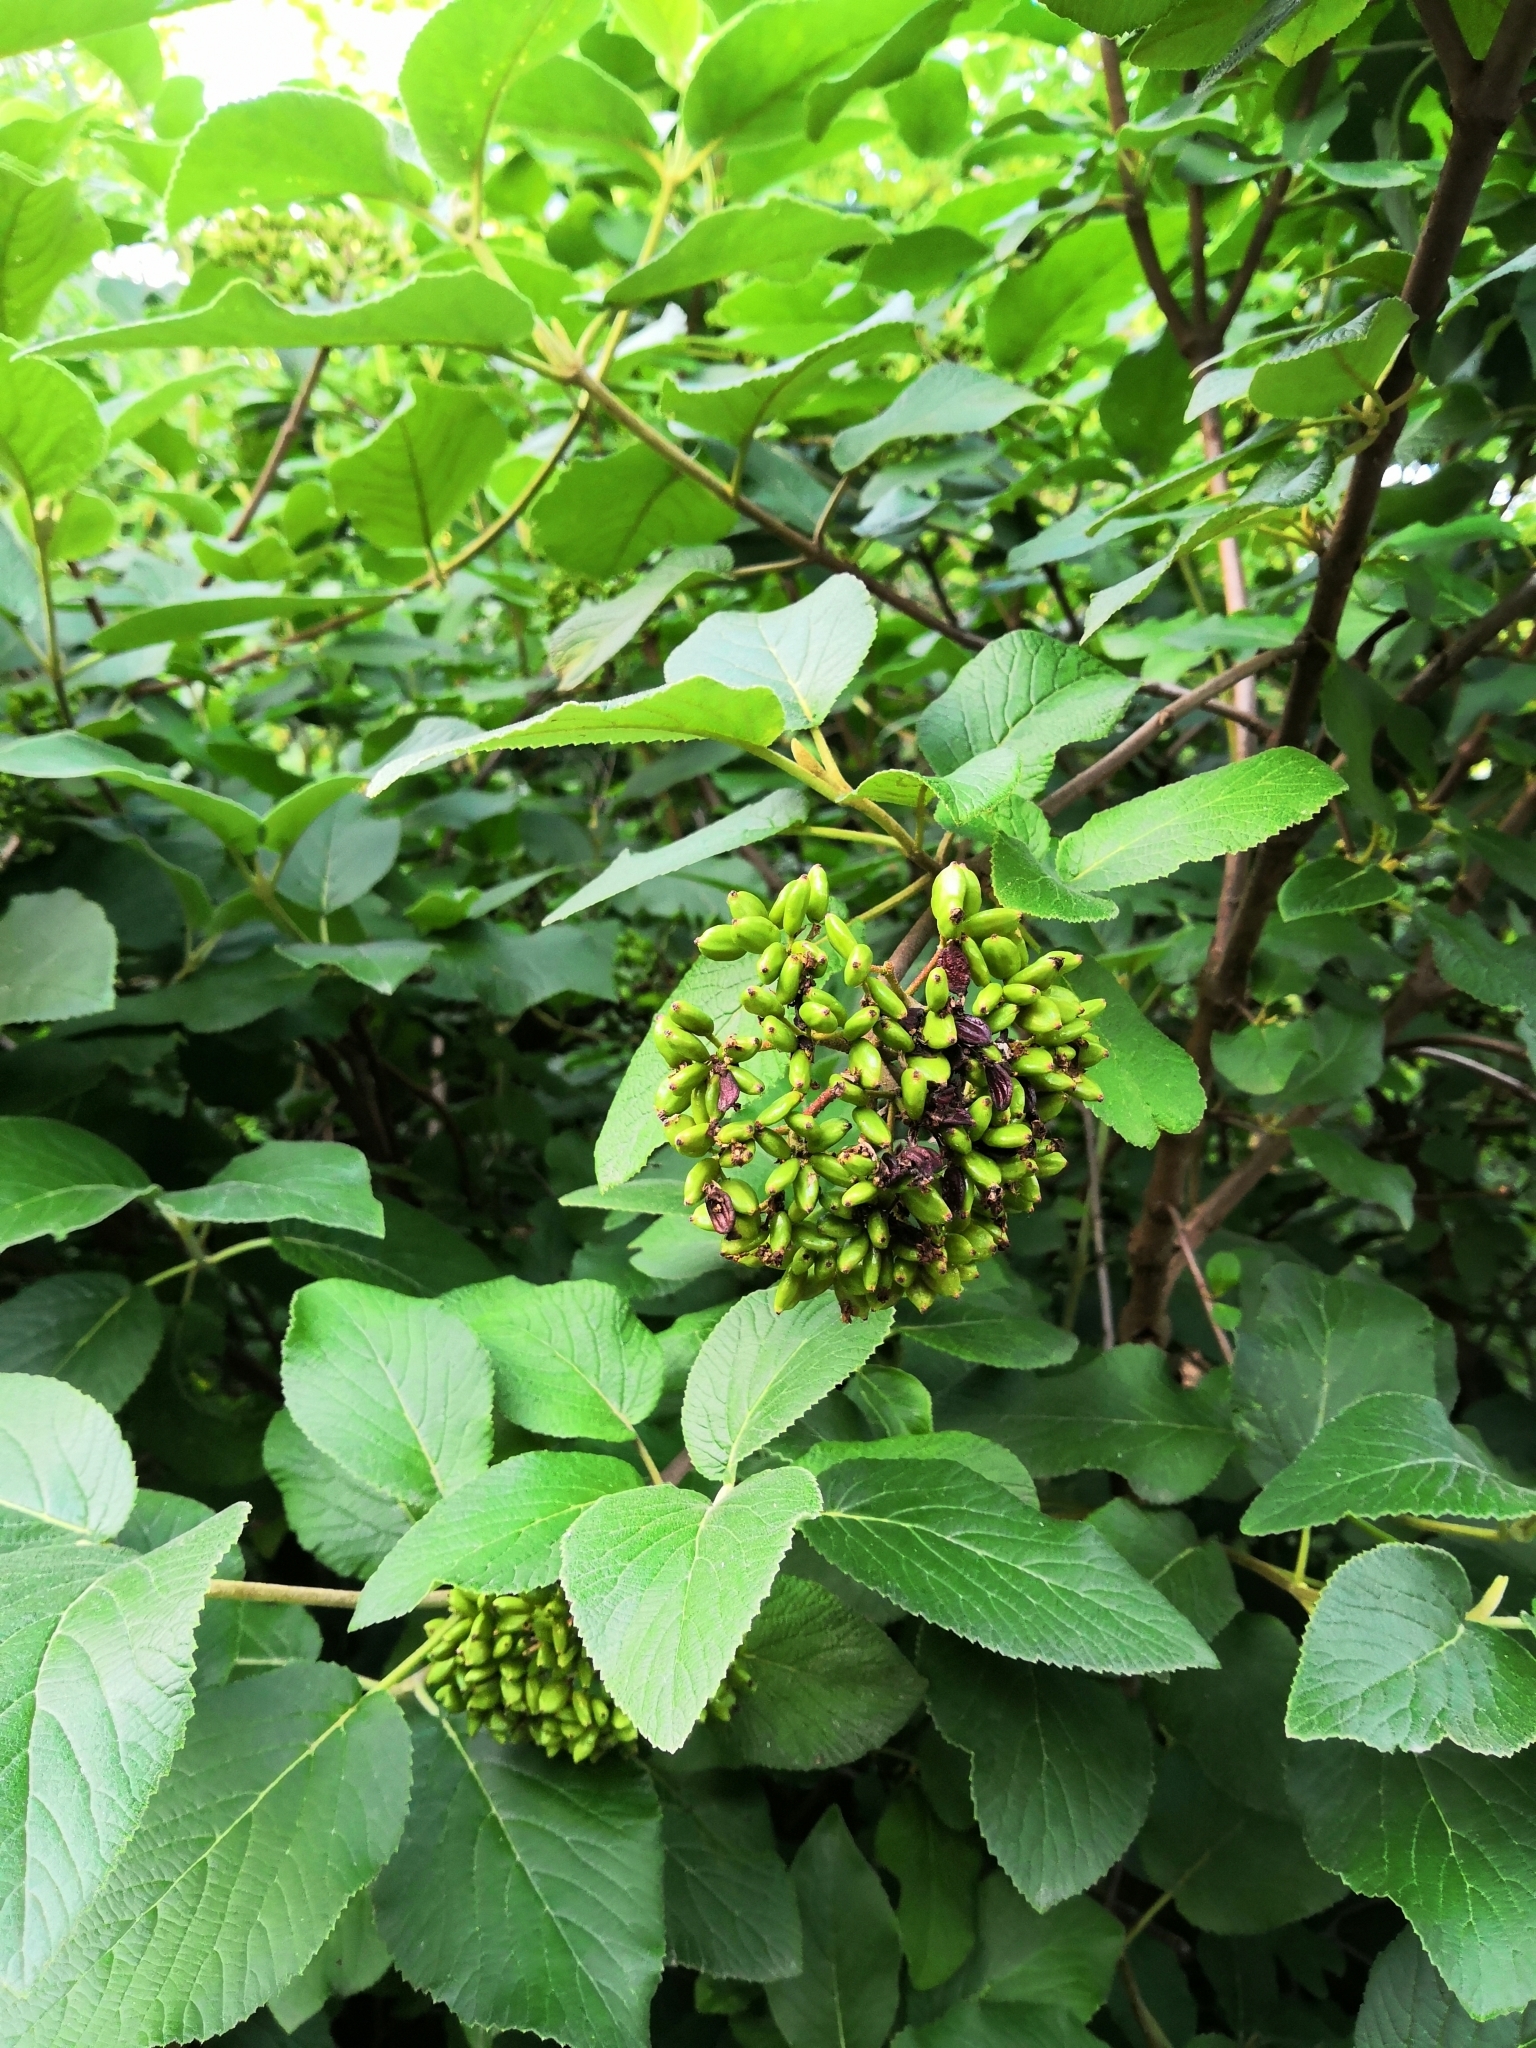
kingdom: Plantae
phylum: Tracheophyta
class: Magnoliopsida
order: Dipsacales
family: Viburnaceae
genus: Viburnum
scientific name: Viburnum lantana
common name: Wayfaring tree
